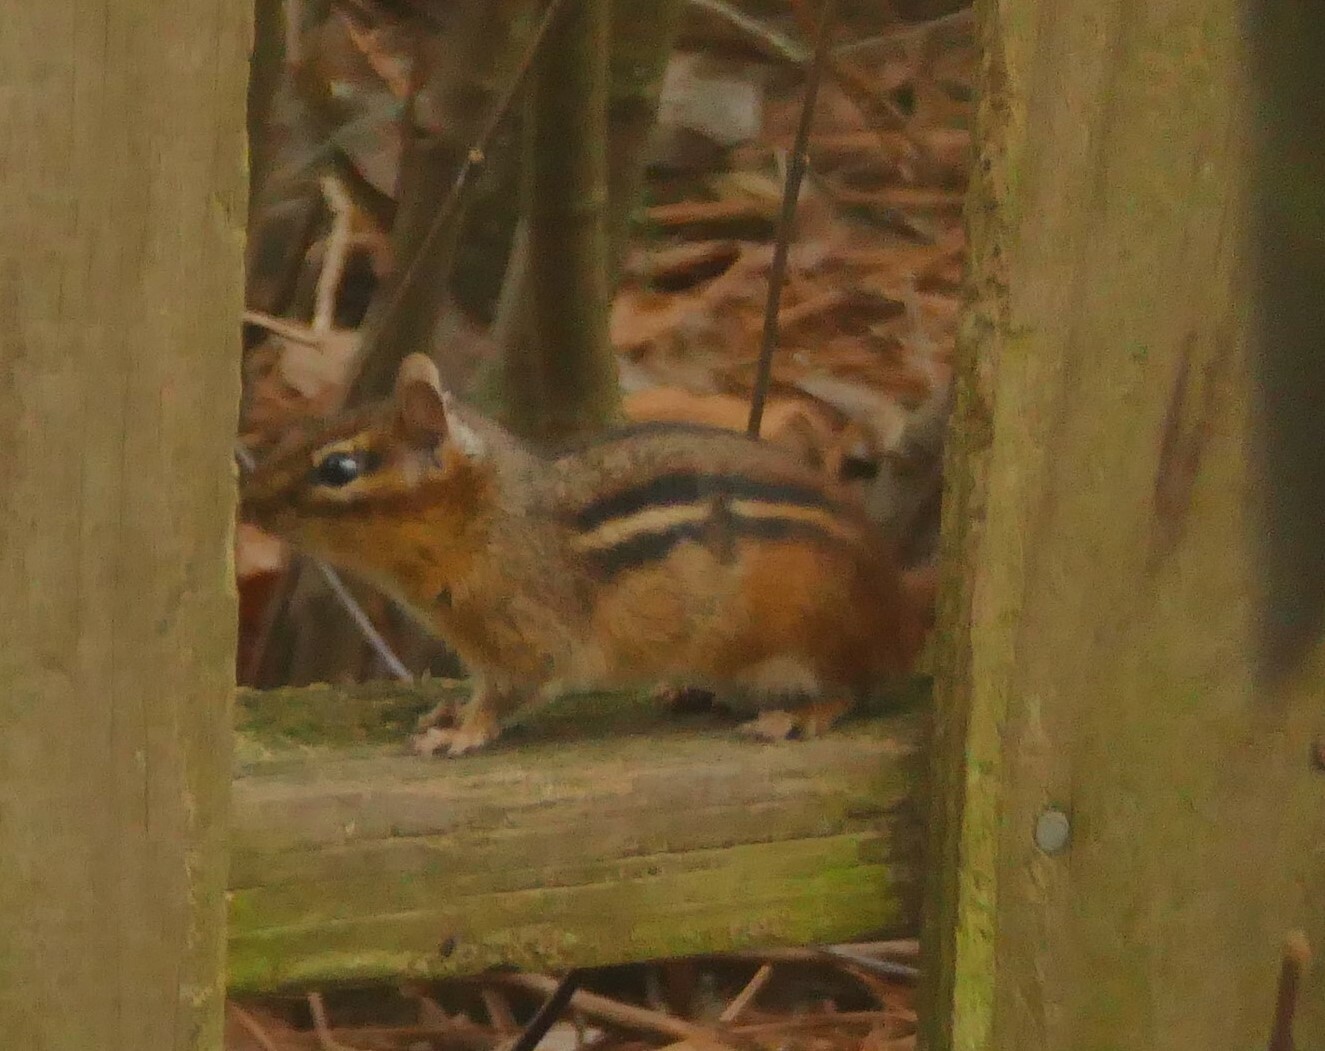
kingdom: Animalia
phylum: Chordata
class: Mammalia
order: Rodentia
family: Sciuridae
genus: Tamias
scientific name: Tamias striatus
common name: Eastern chipmunk
